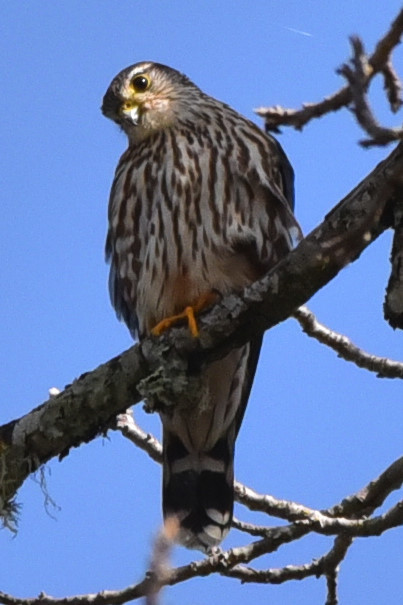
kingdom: Animalia
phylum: Chordata
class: Aves
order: Falconiformes
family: Falconidae
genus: Falco
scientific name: Falco columbarius
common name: Merlin
